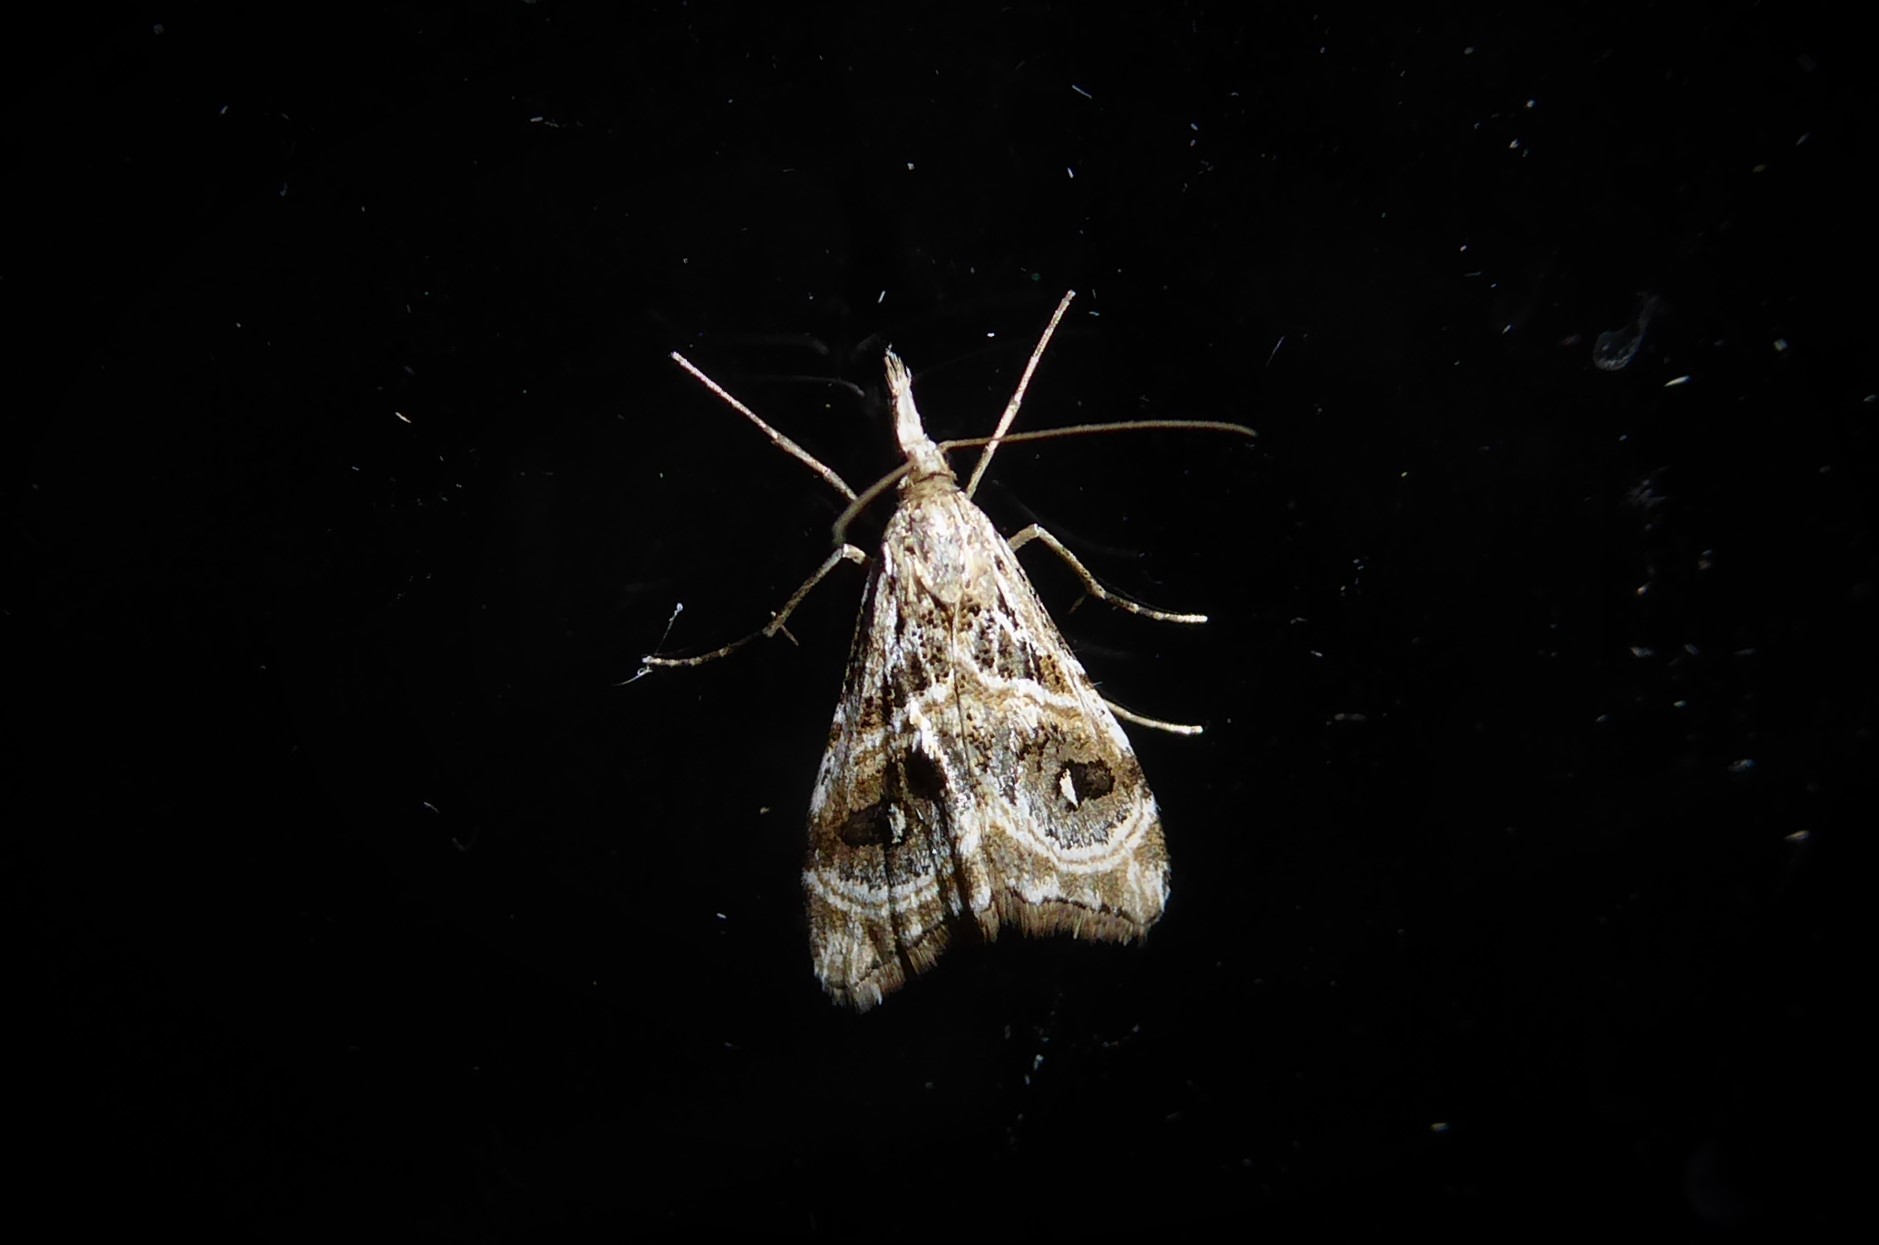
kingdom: Animalia
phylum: Arthropoda
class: Insecta
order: Lepidoptera
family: Crambidae
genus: Gadira
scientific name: Gadira acerella
